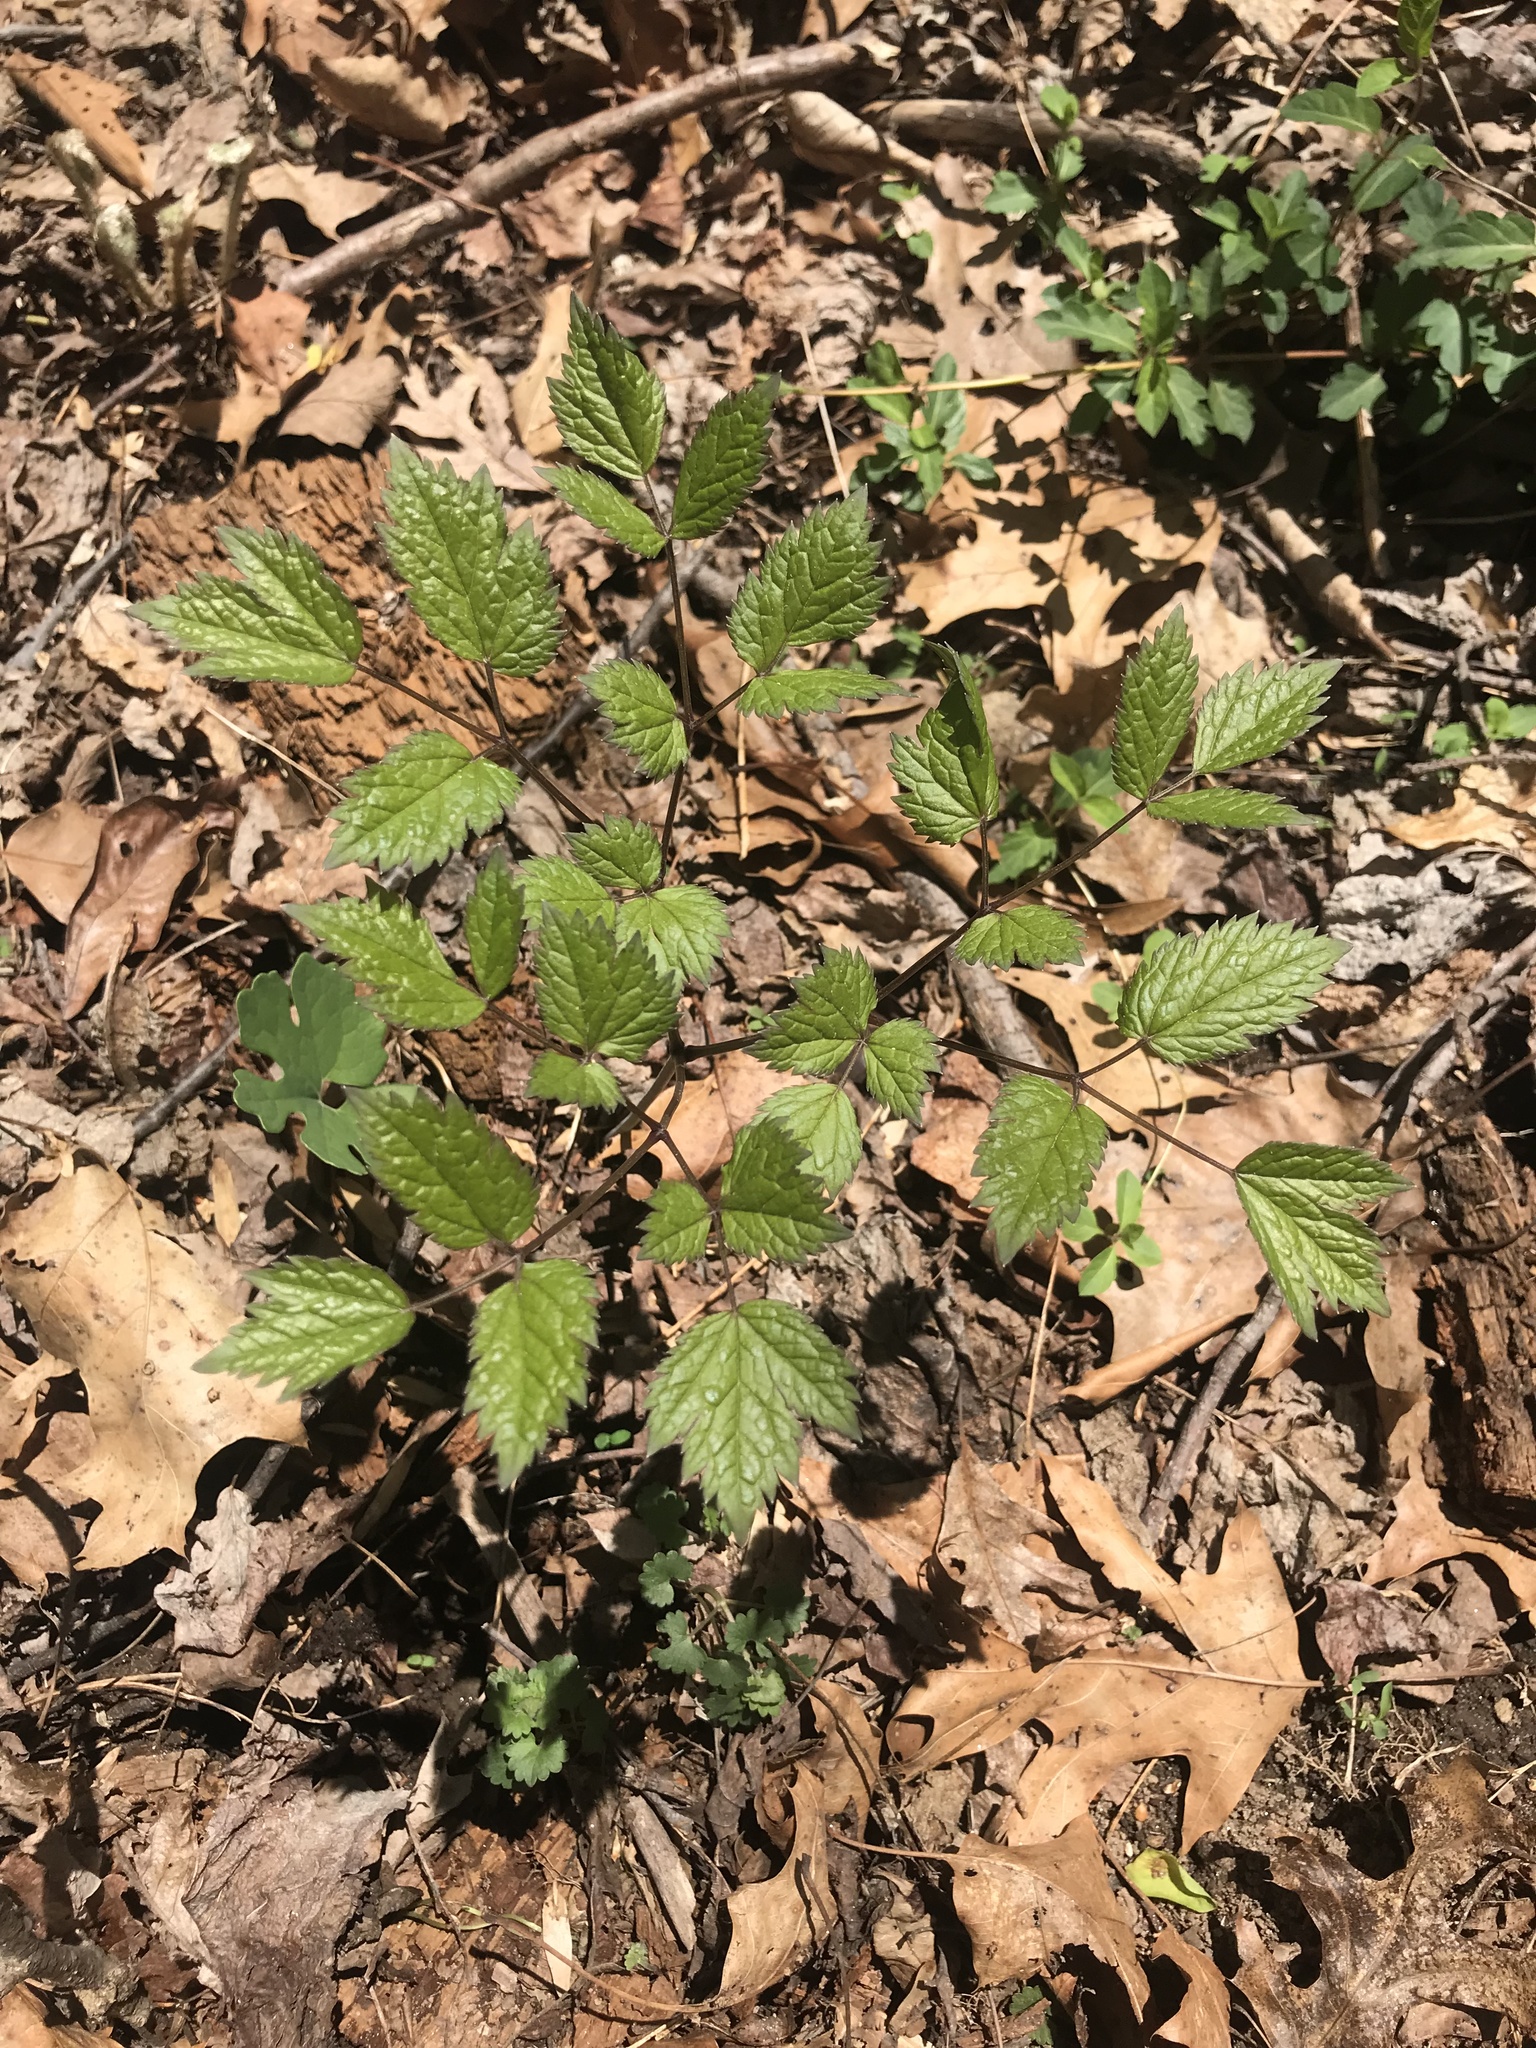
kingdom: Plantae
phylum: Tracheophyta
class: Magnoliopsida
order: Ranunculales
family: Ranunculaceae
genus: Actaea
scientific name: Actaea racemosa
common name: Black cohosh
